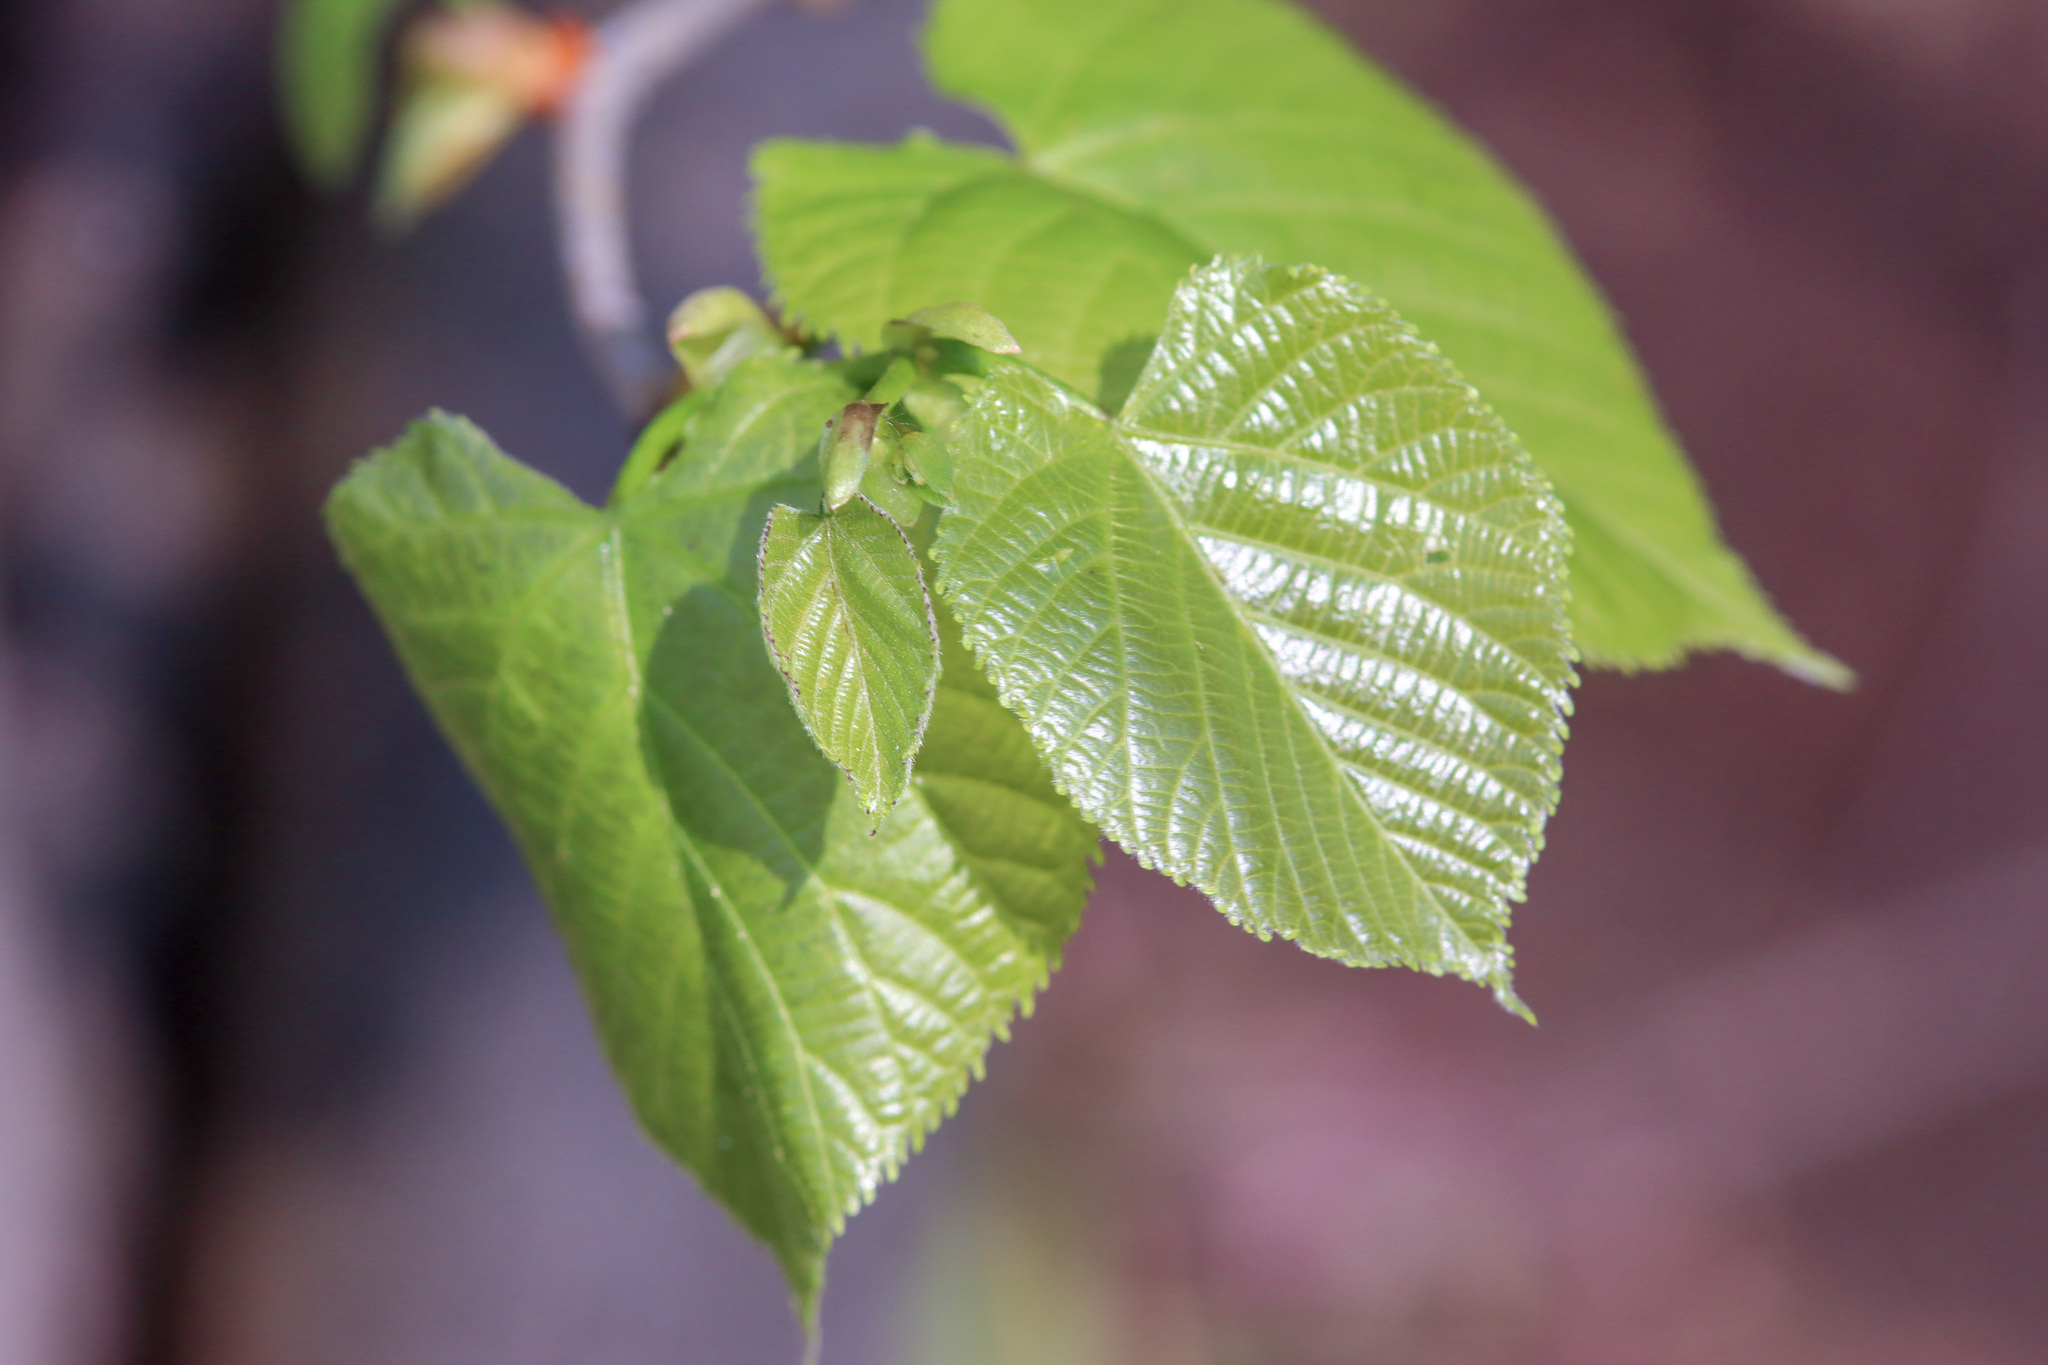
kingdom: Plantae
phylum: Tracheophyta
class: Magnoliopsida
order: Malvales
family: Malvaceae
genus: Tilia
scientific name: Tilia americana
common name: Basswood
